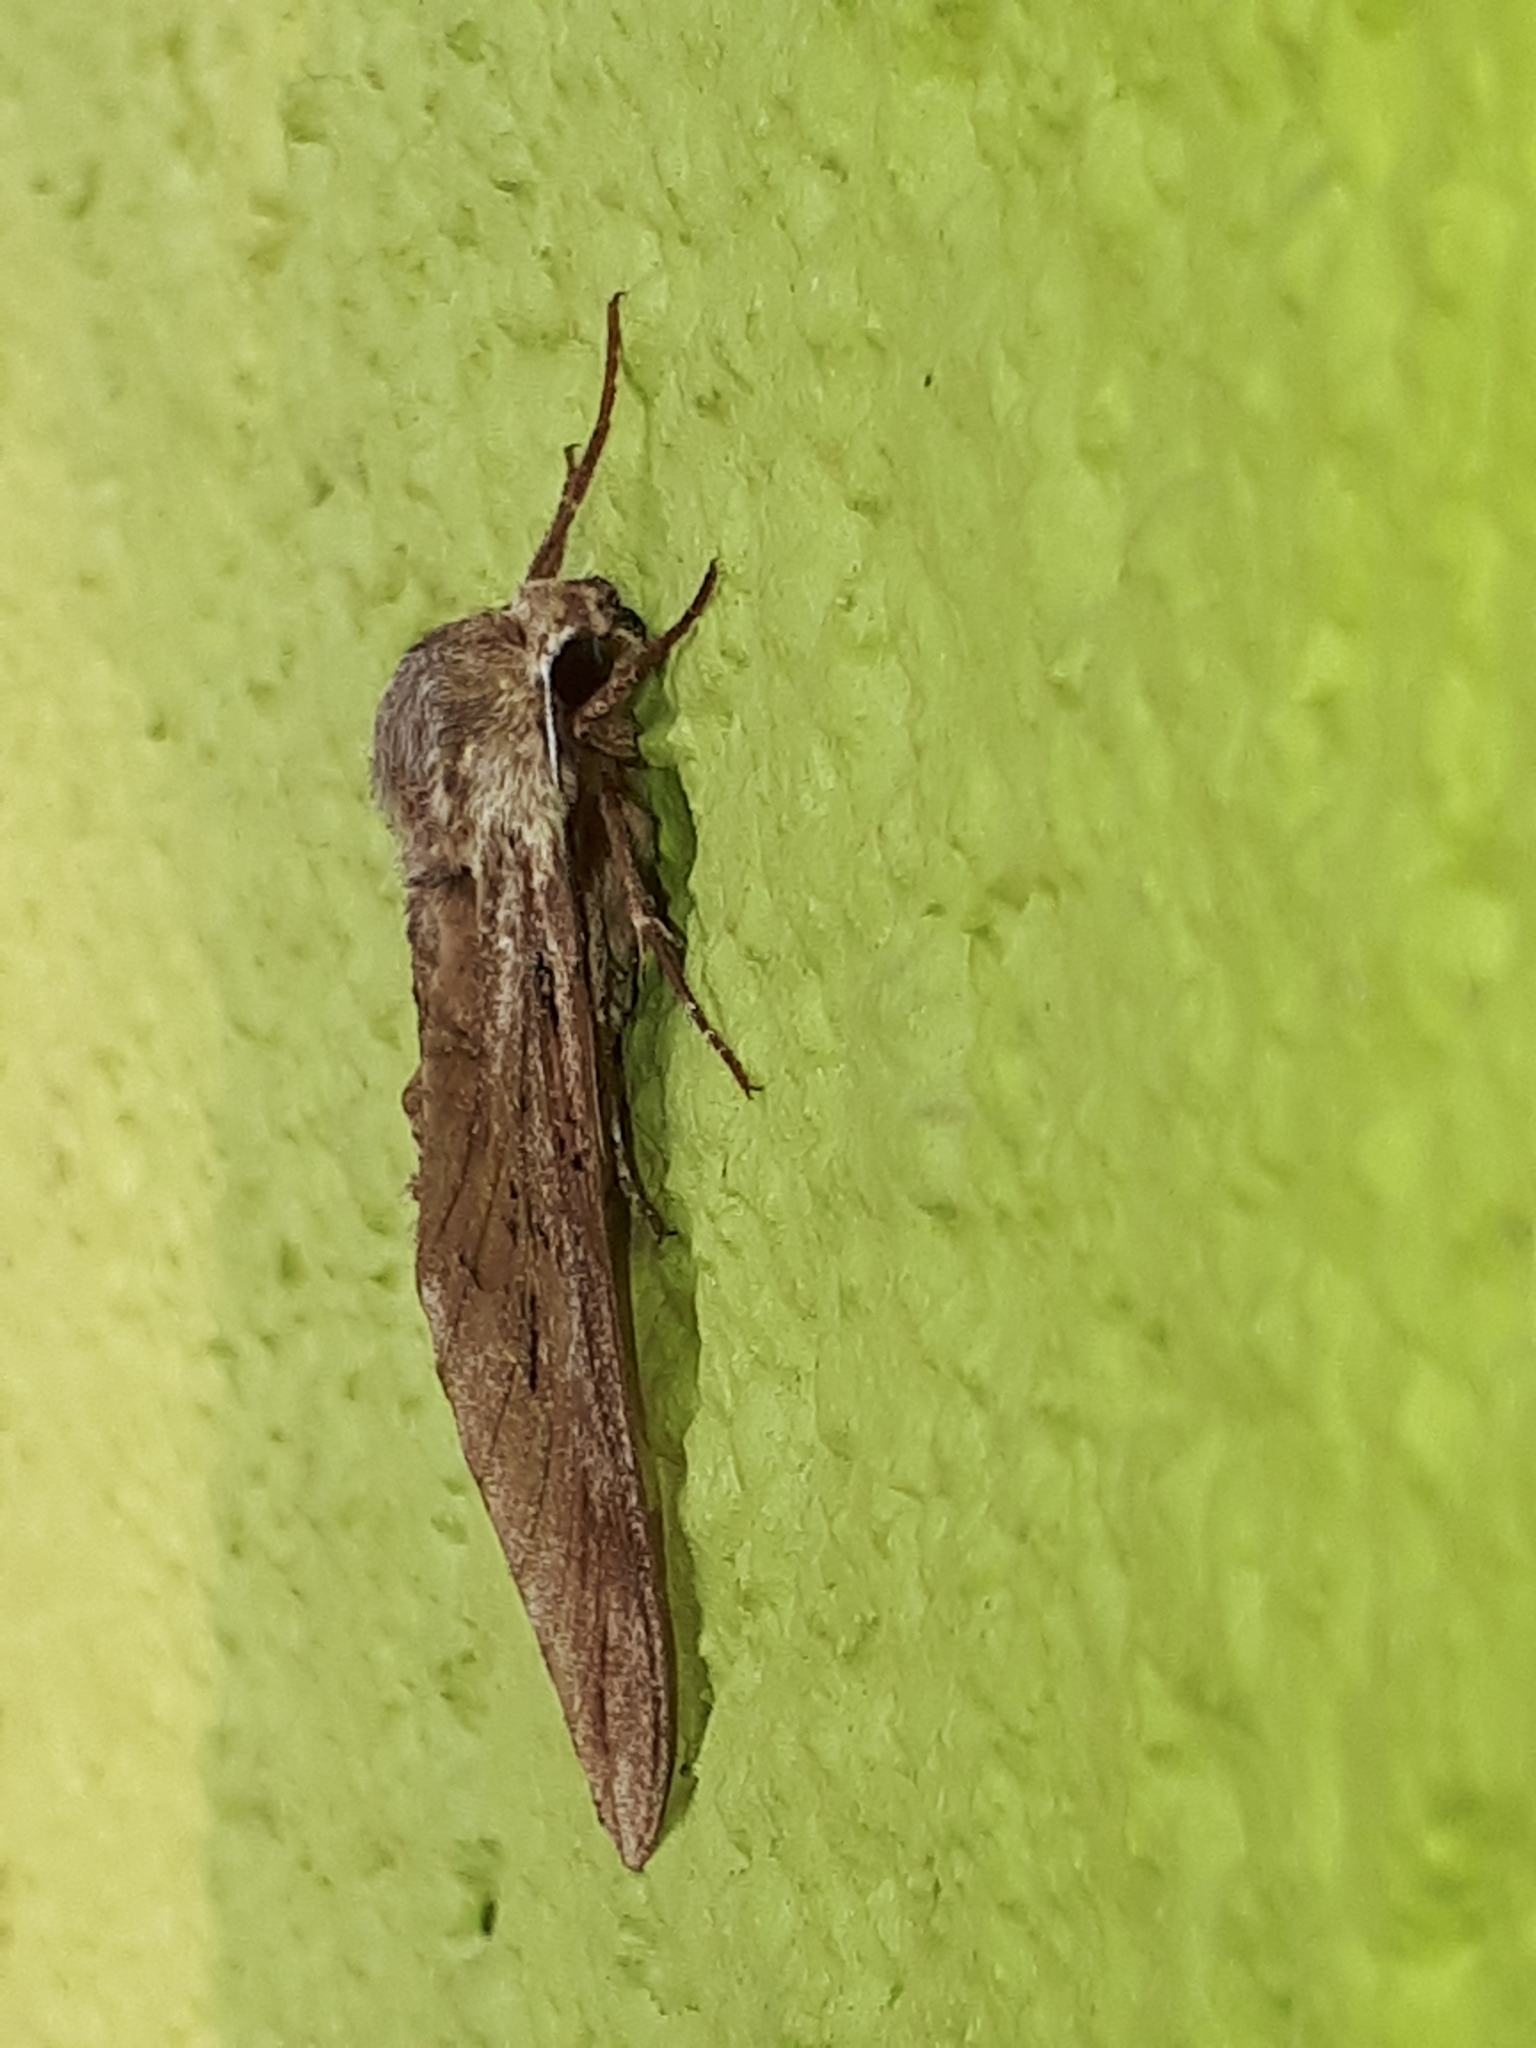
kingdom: Animalia
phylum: Arthropoda
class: Insecta
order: Lepidoptera
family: Sphingidae
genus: Sphinx
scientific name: Sphinx pinastri
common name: Pine hawk-moth
